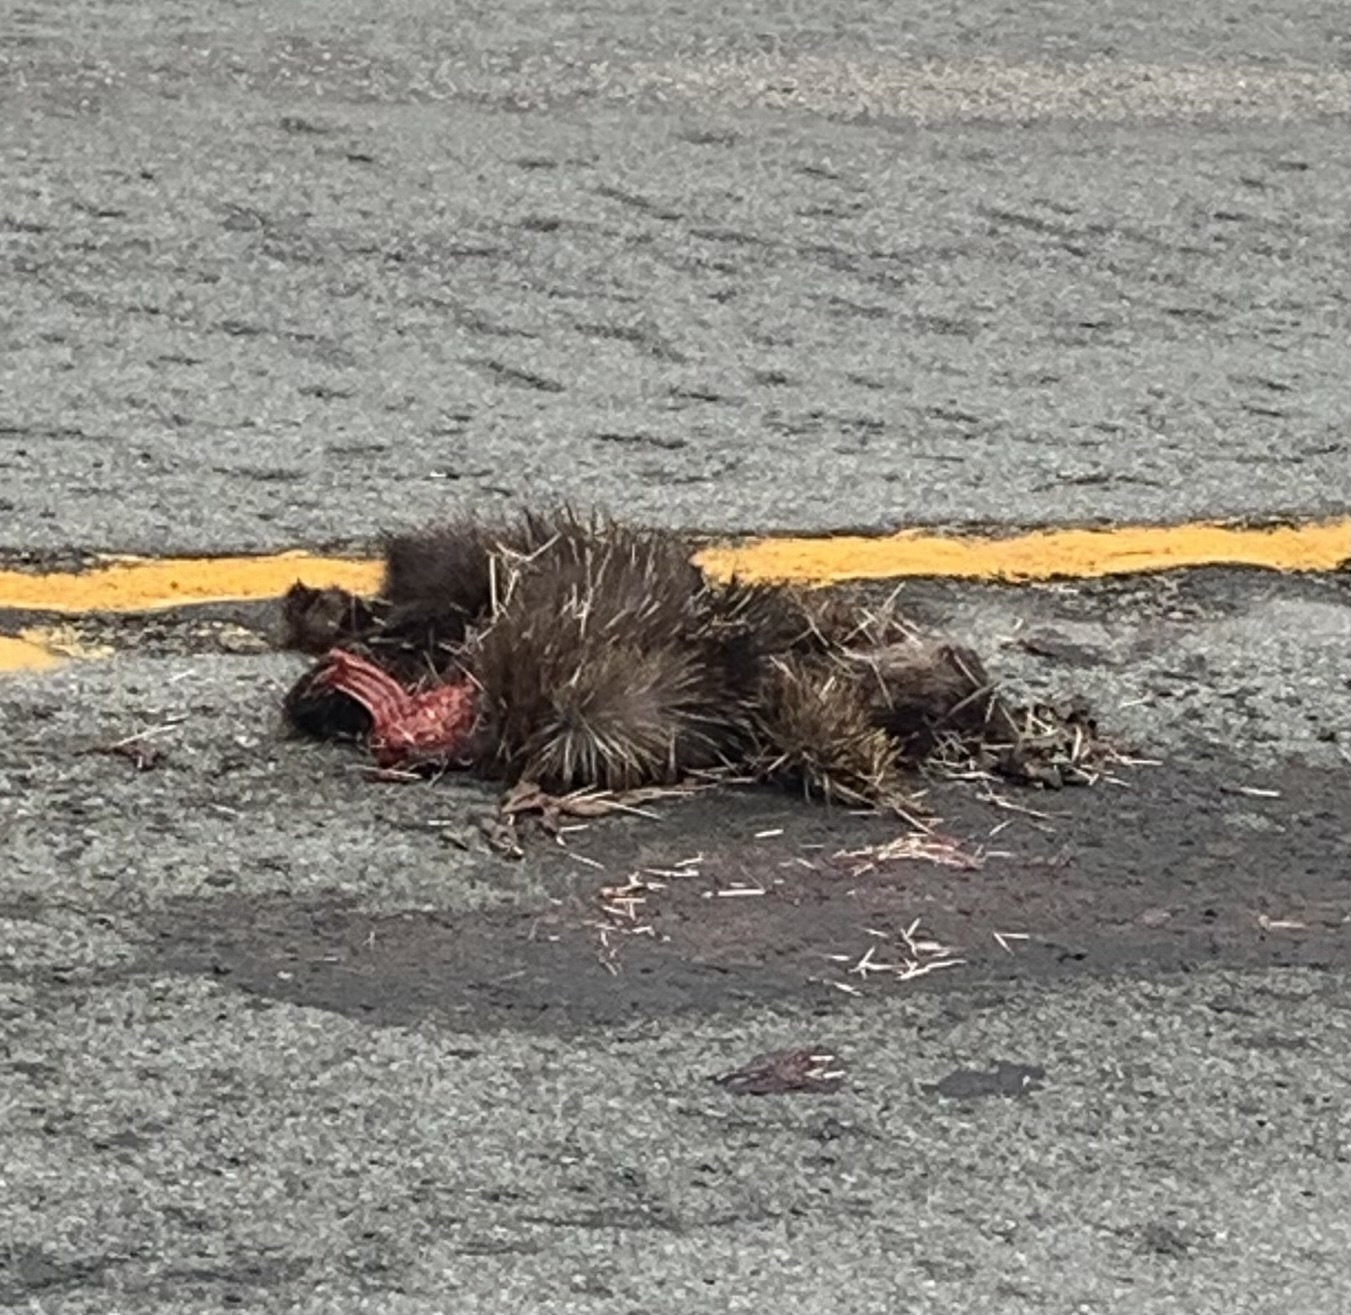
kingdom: Animalia
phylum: Chordata
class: Mammalia
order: Rodentia
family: Erethizontidae
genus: Erethizon
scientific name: Erethizon dorsatus
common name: North american porcupine
